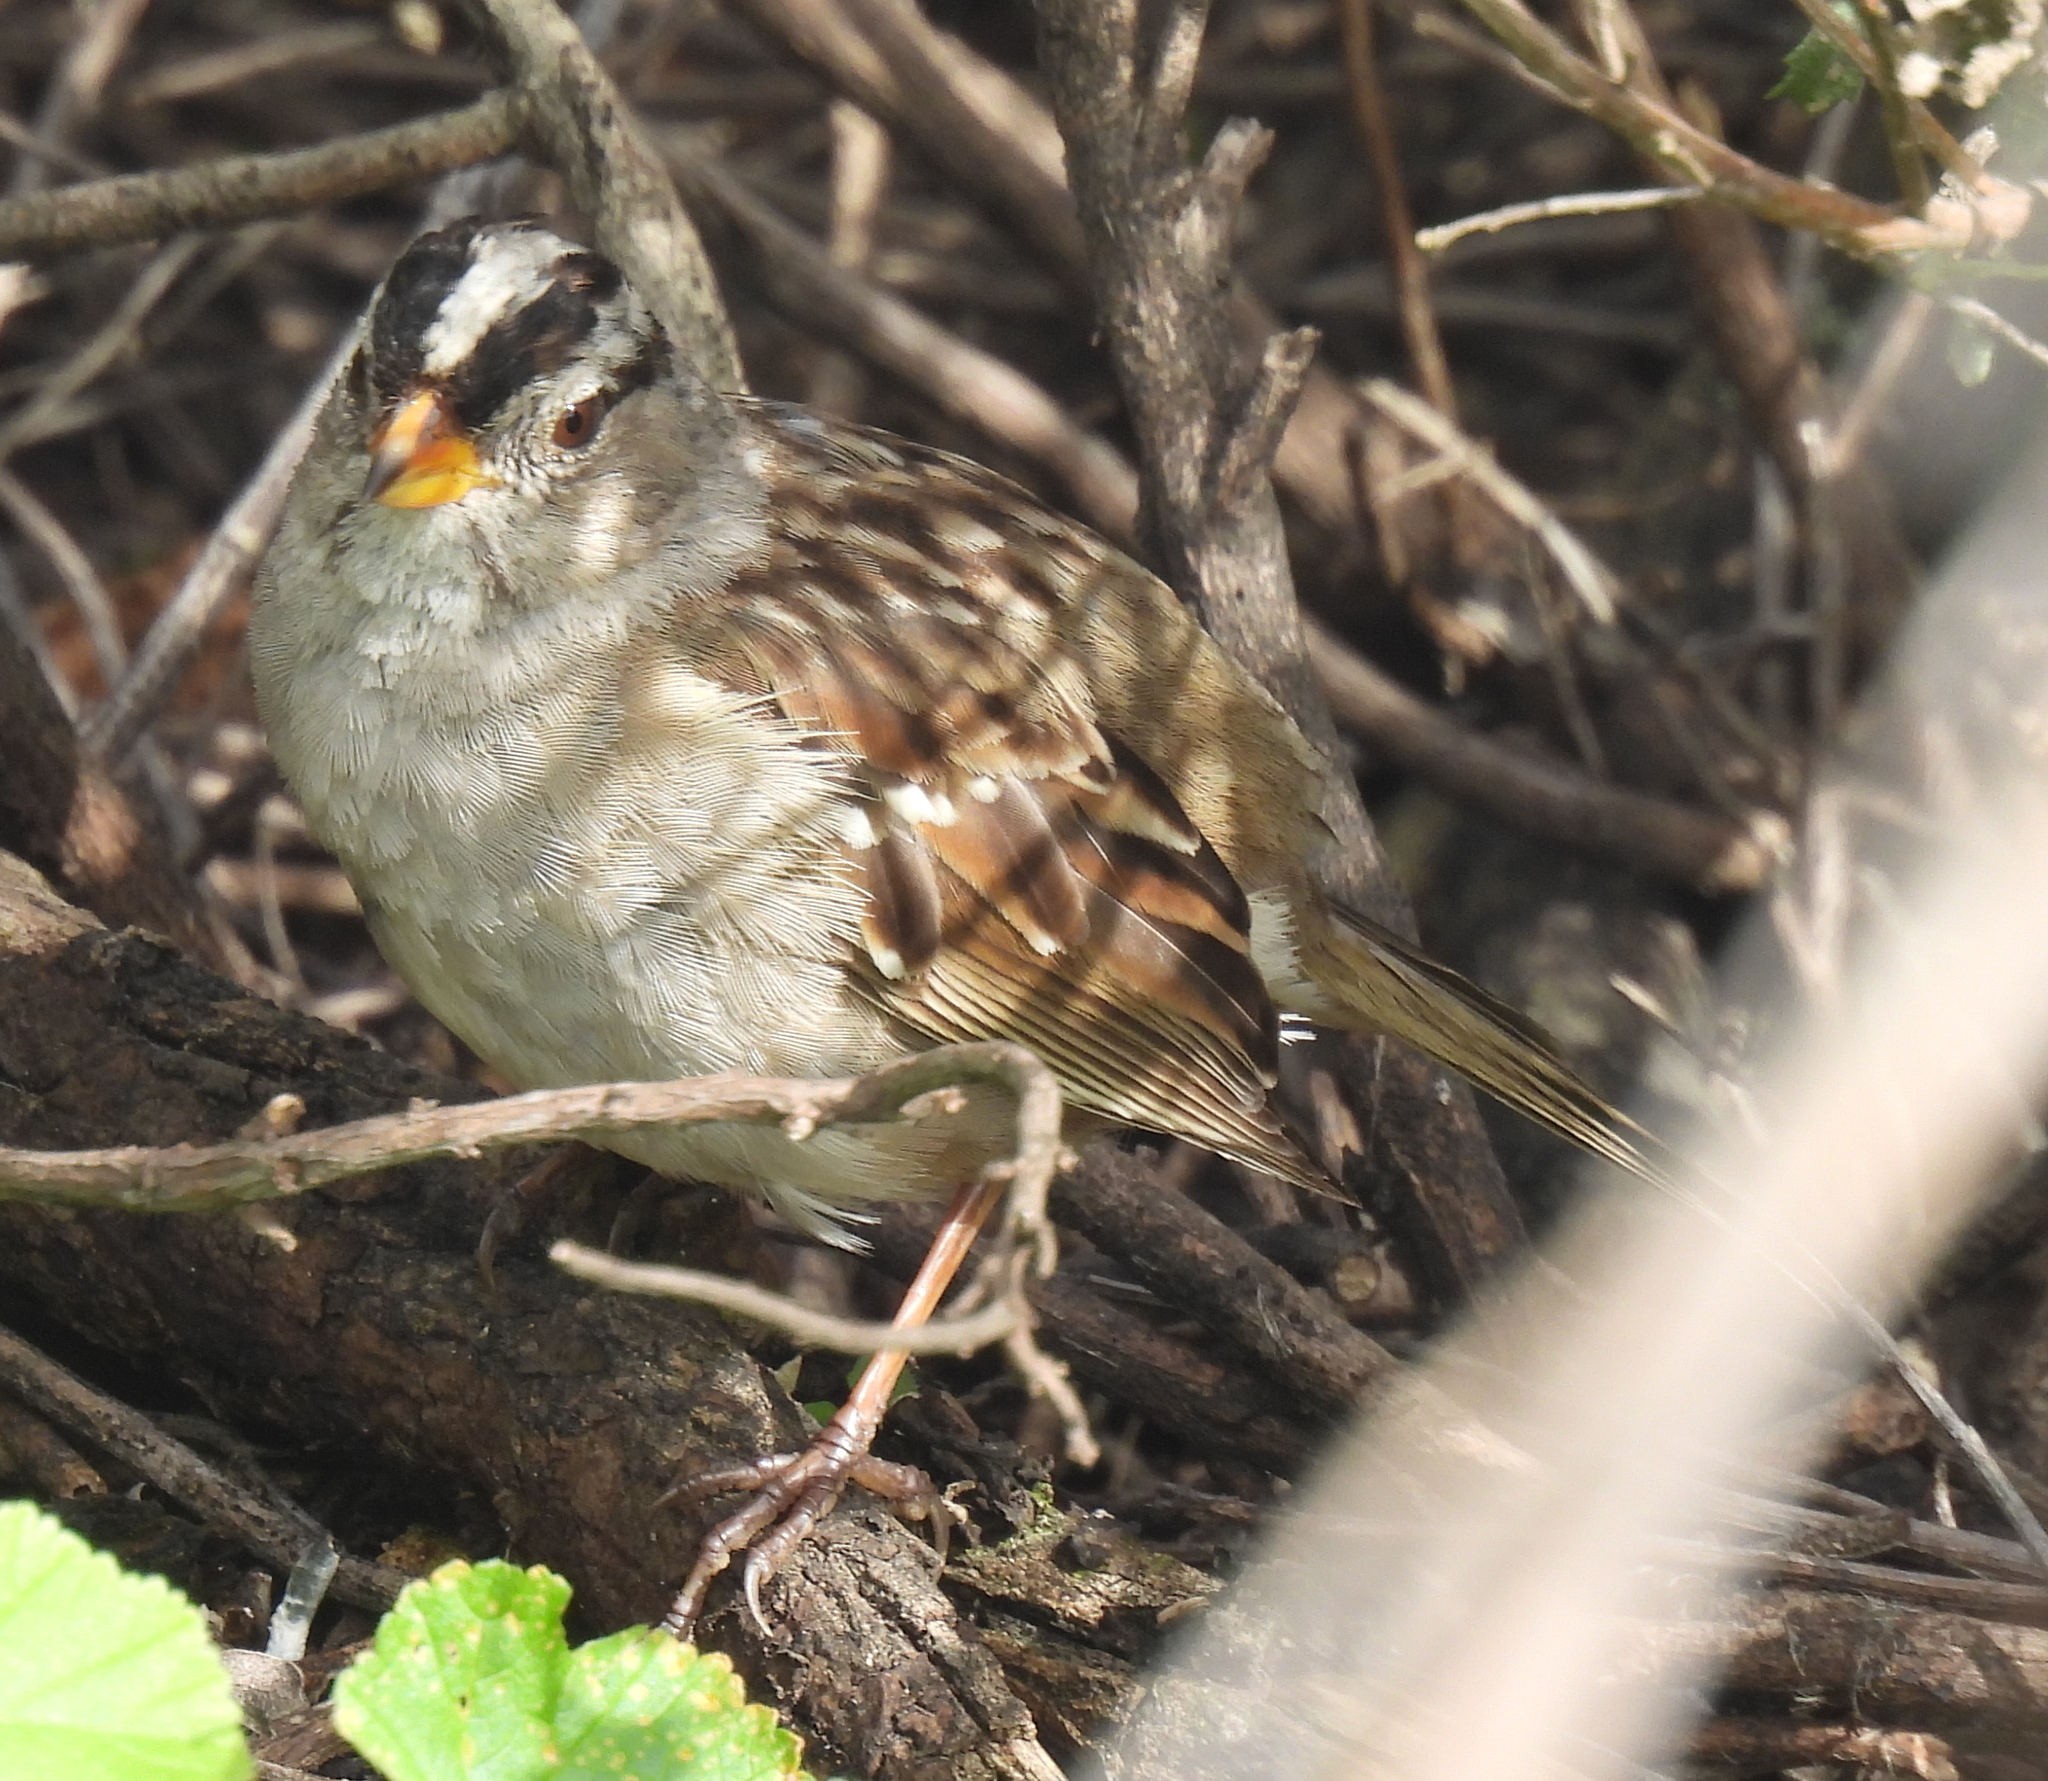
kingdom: Animalia
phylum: Chordata
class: Aves
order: Passeriformes
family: Passerellidae
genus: Zonotrichia
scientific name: Zonotrichia leucophrys
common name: White-crowned sparrow
